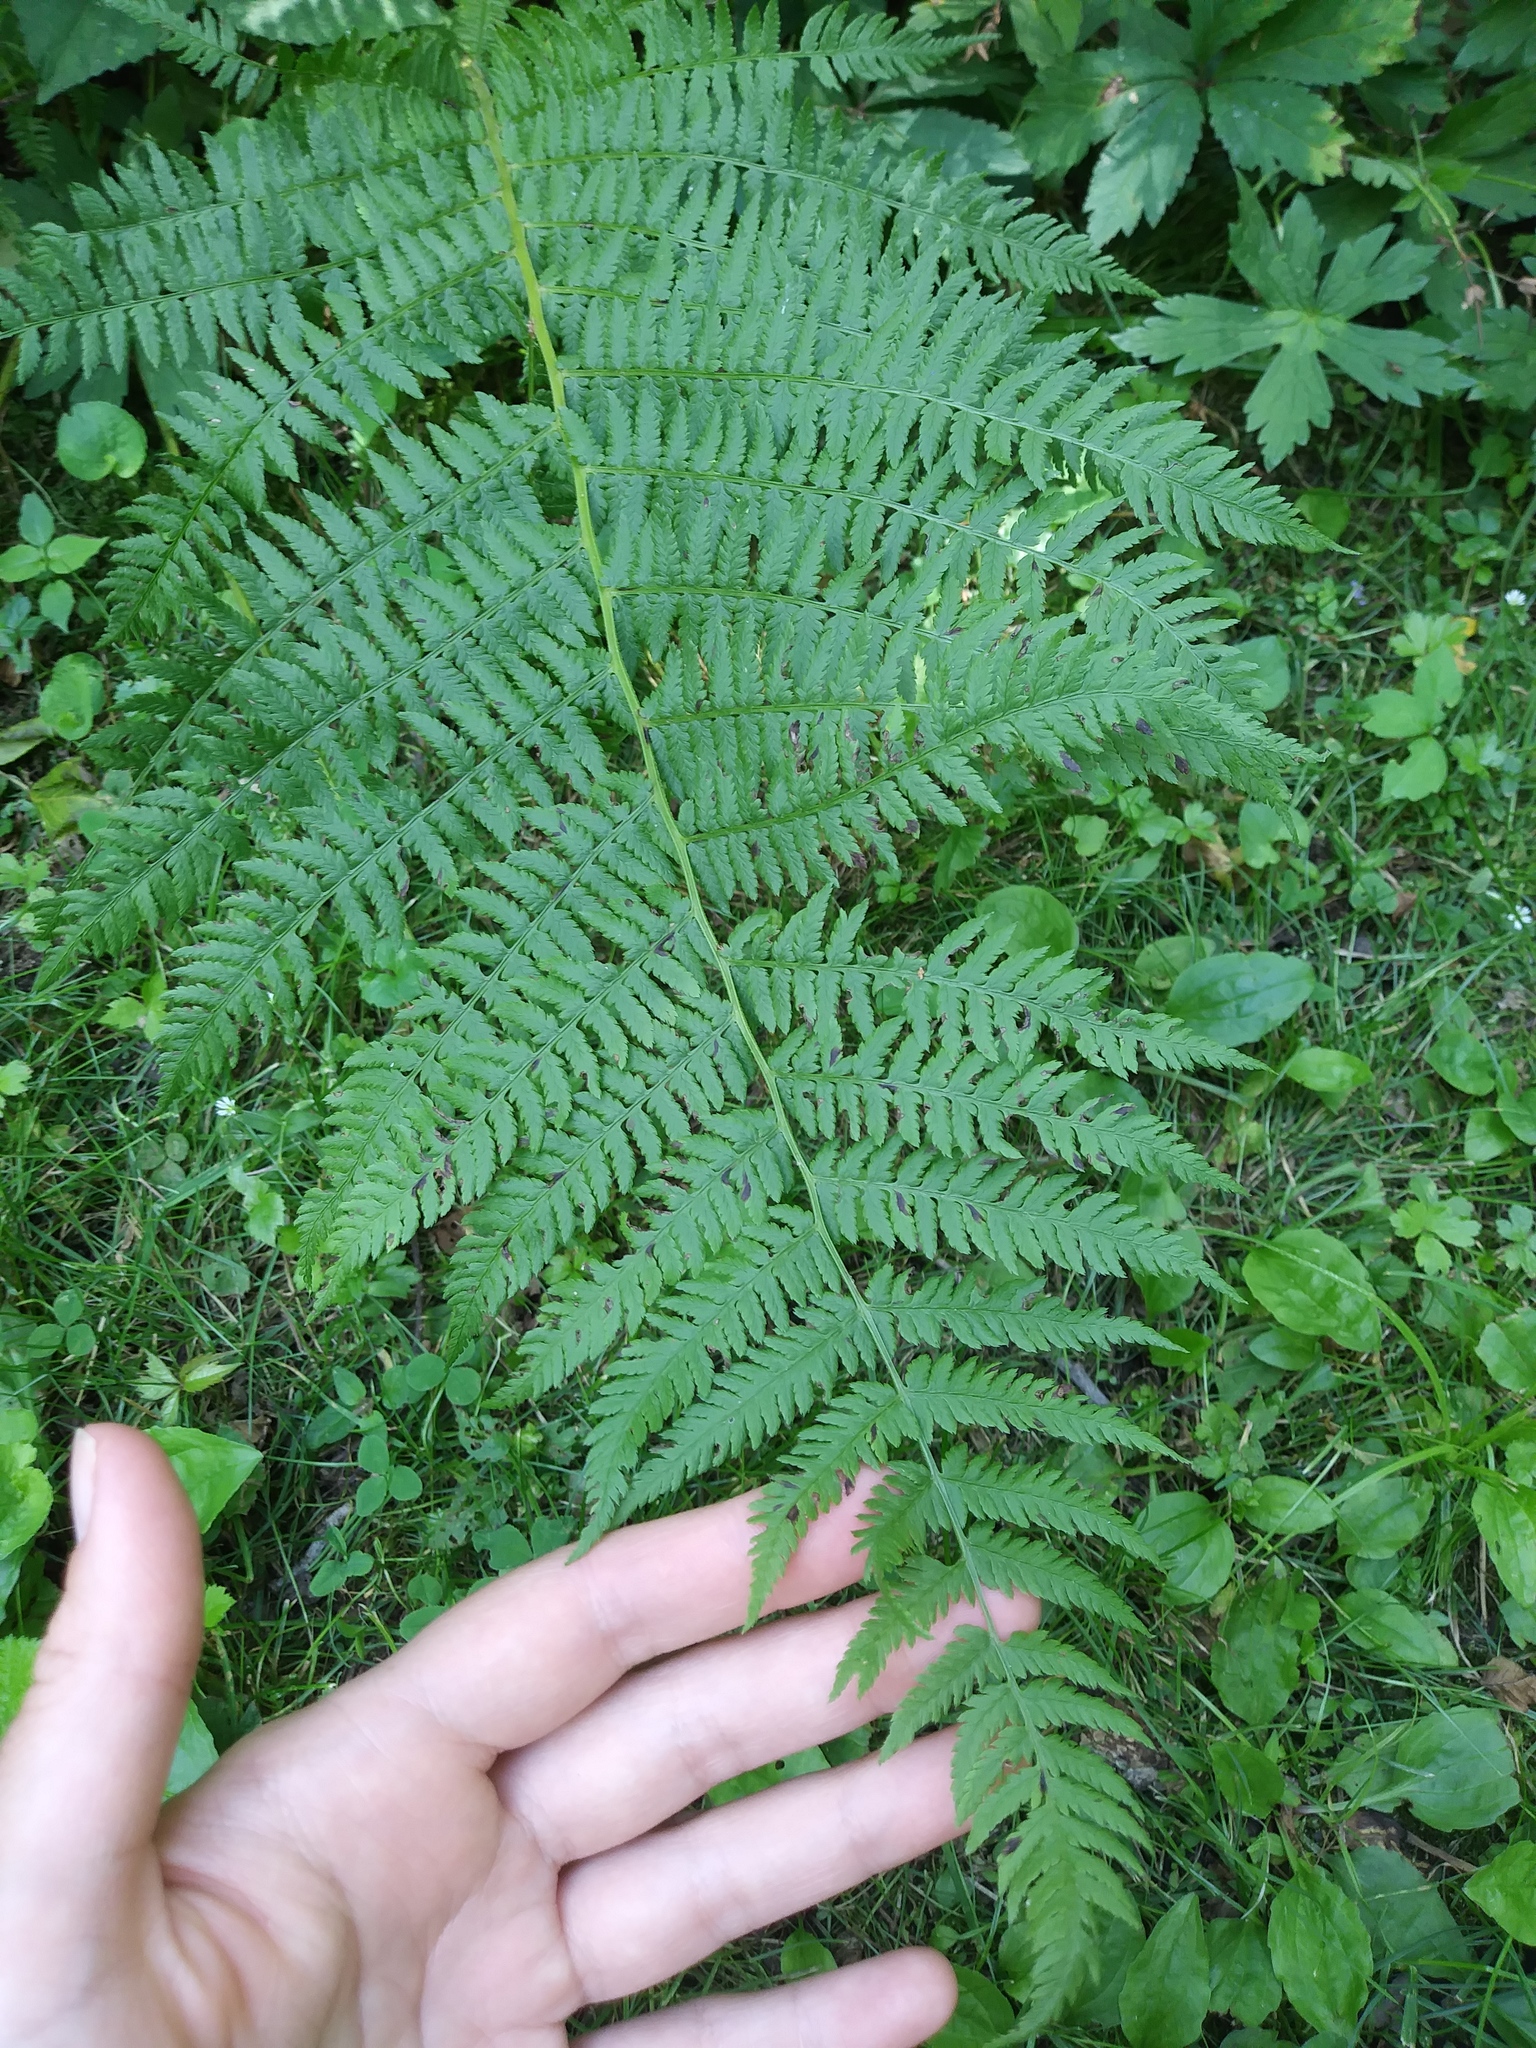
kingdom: Plantae
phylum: Tracheophyta
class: Polypodiopsida
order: Polypodiales
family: Athyriaceae
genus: Athyrium
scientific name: Athyrium angustum
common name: Northern lady fern
